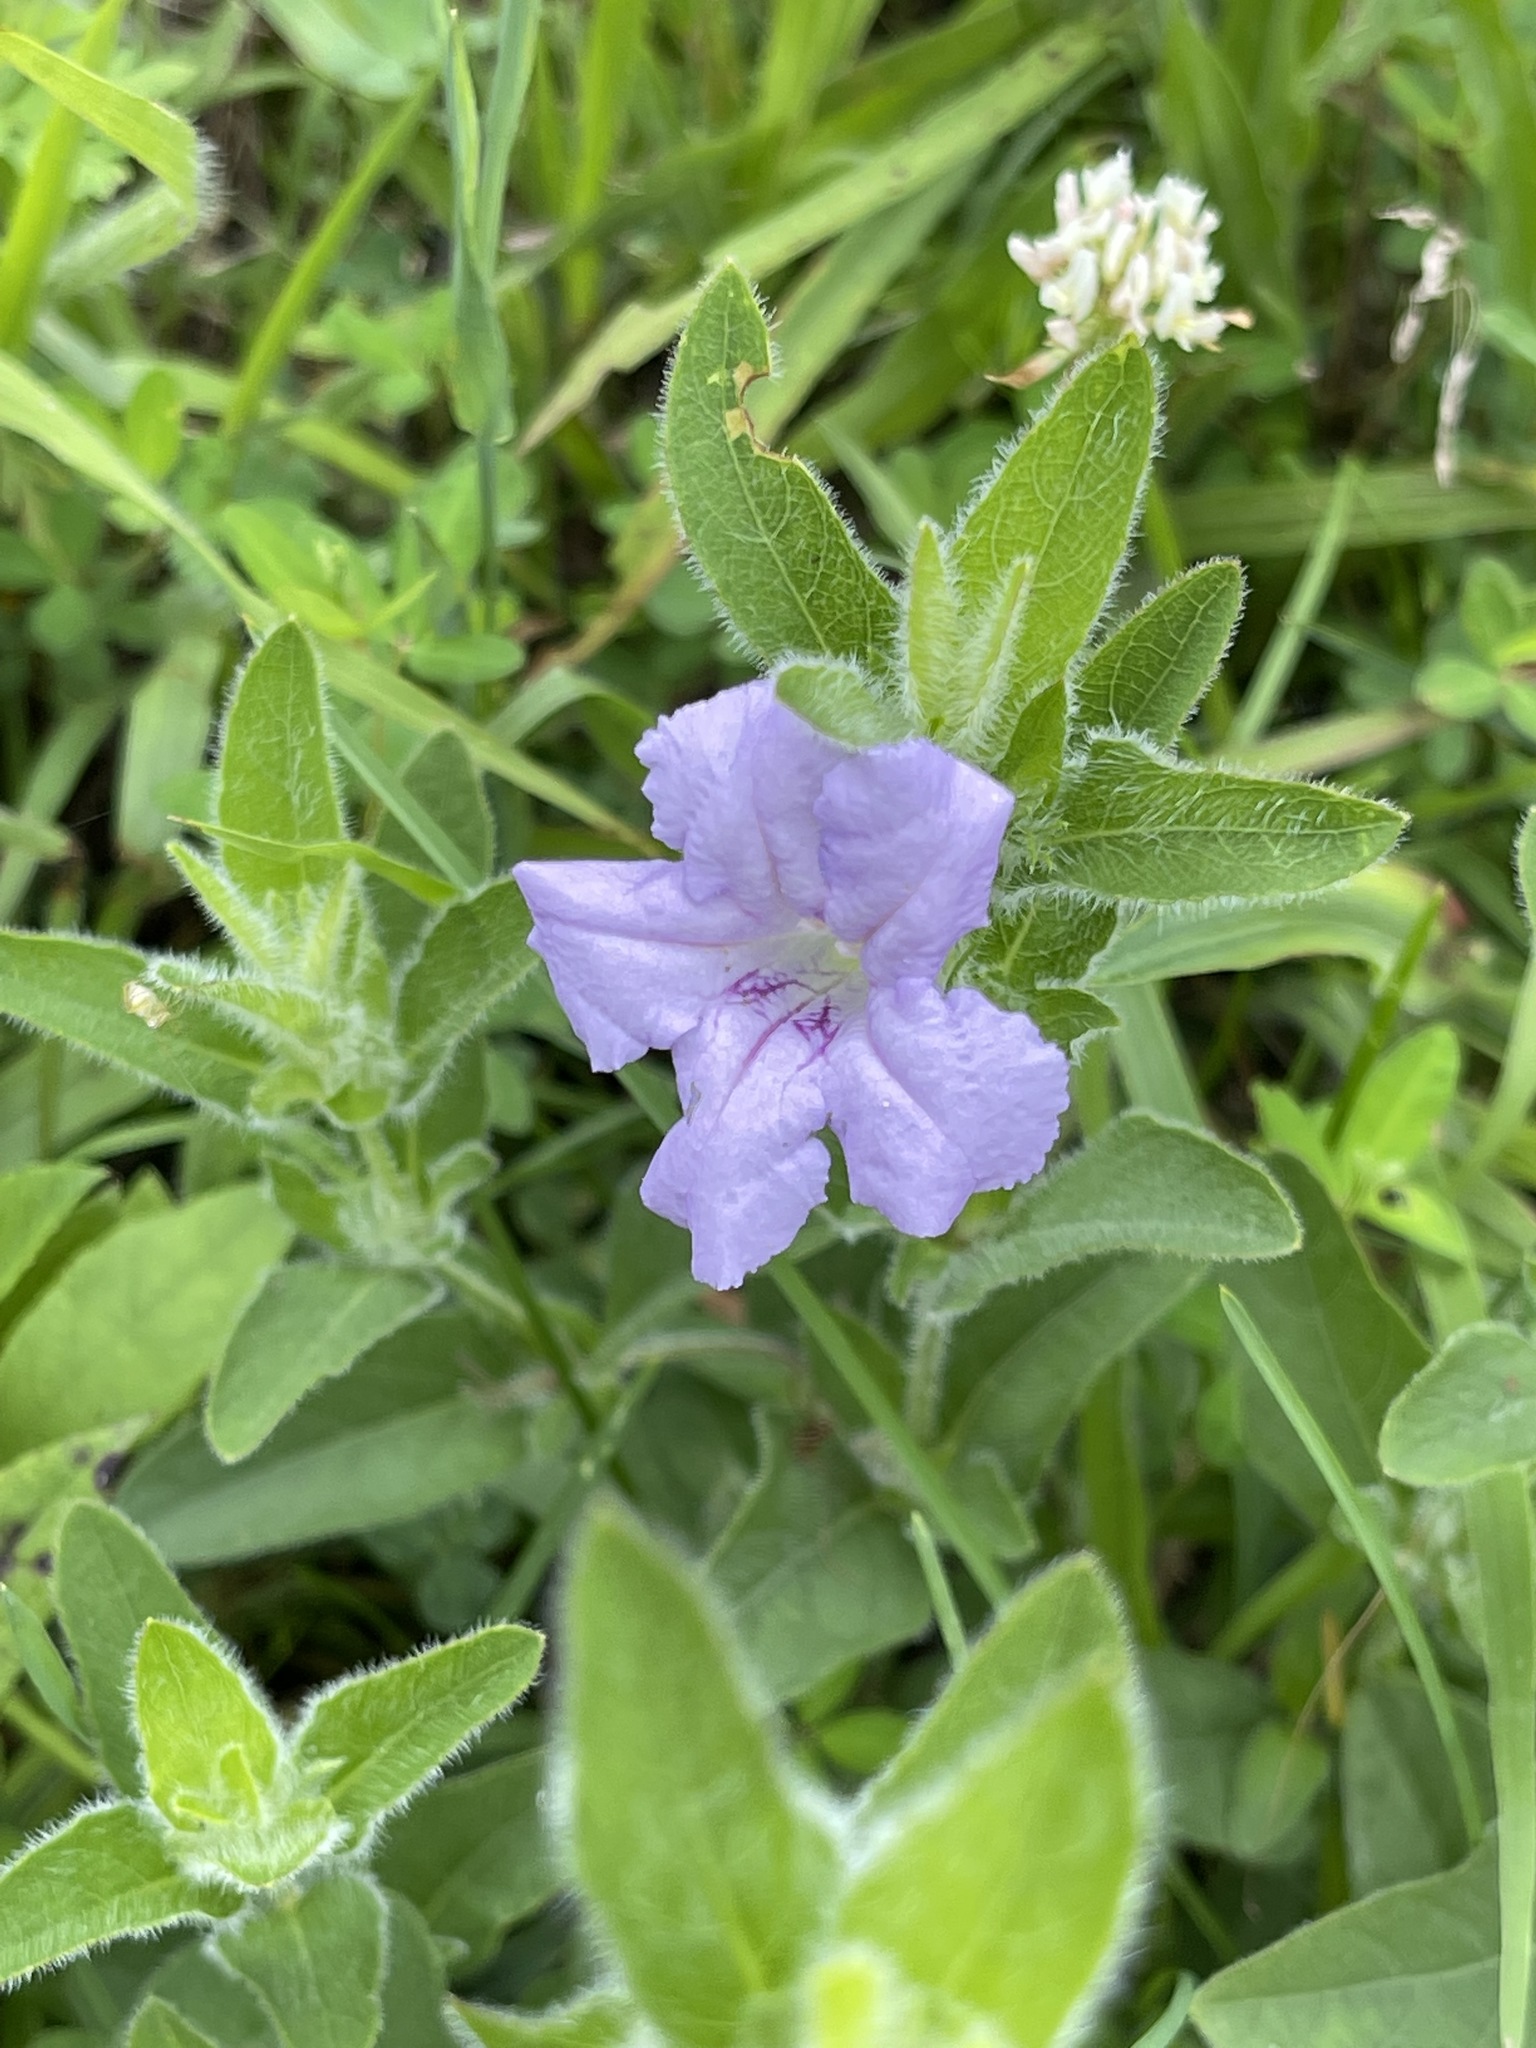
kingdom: Plantae
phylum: Tracheophyta
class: Magnoliopsida
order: Lamiales
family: Acanthaceae
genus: Ruellia
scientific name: Ruellia humilis
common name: Fringe-leaf ruellia
